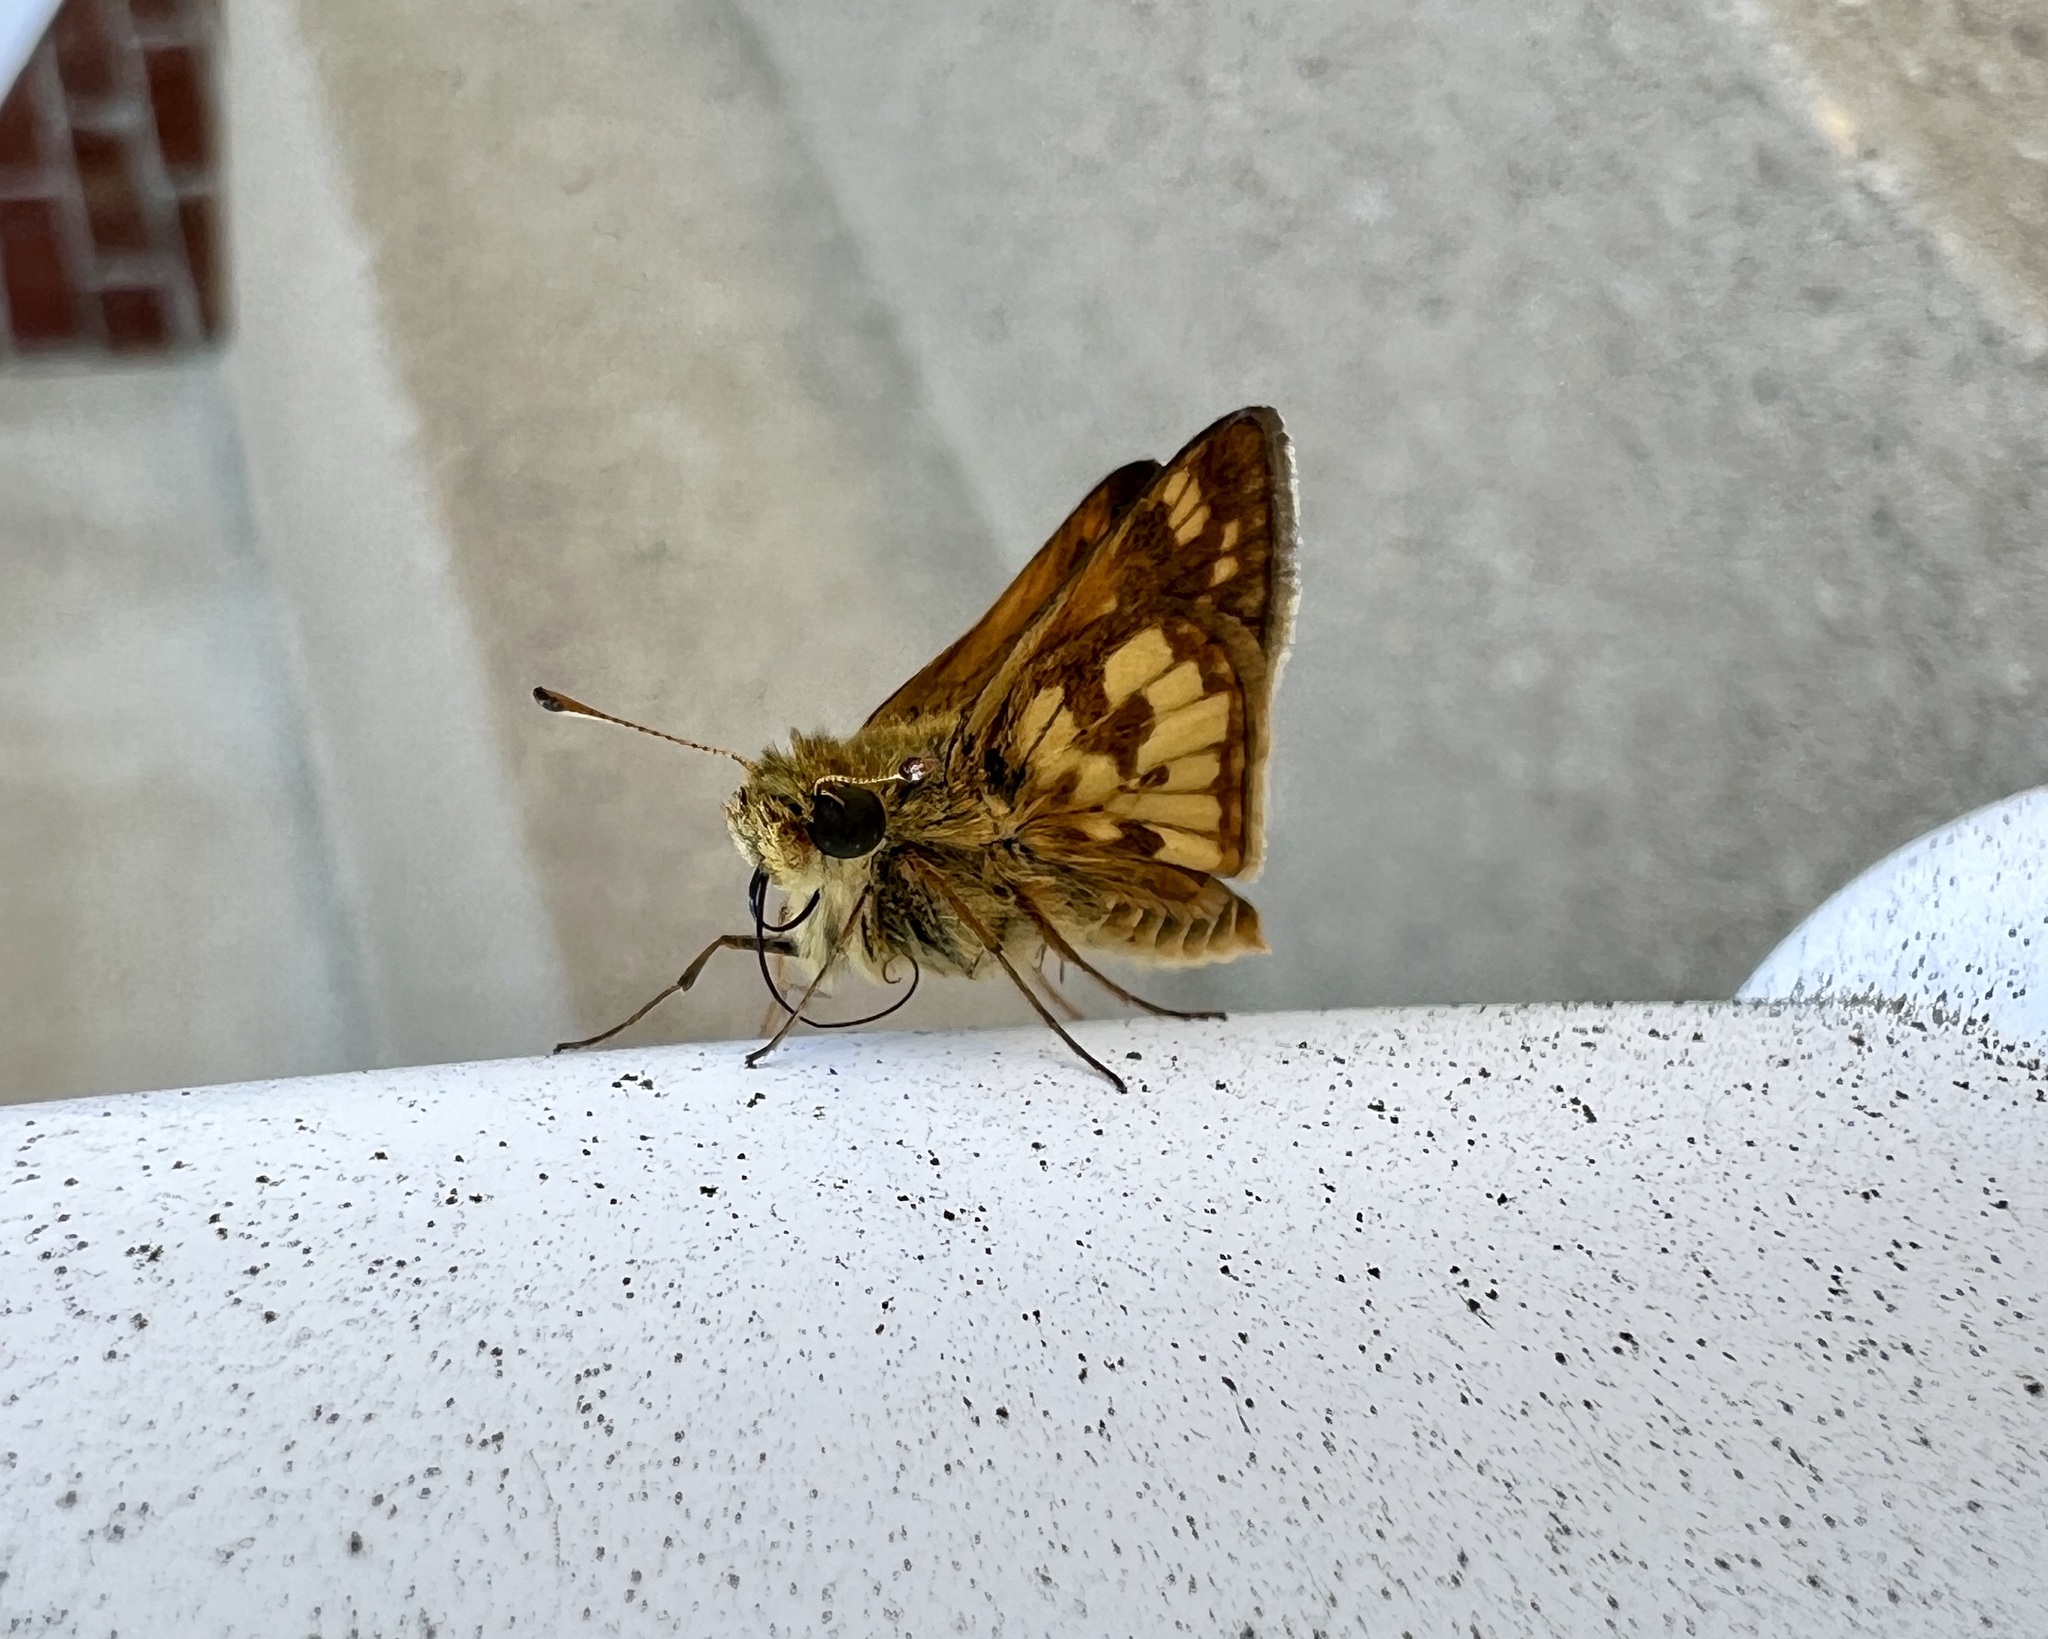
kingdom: Animalia
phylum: Arthropoda
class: Insecta
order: Lepidoptera
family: Hesperiidae
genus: Polites
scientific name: Polites coras
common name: Peck's skipper
